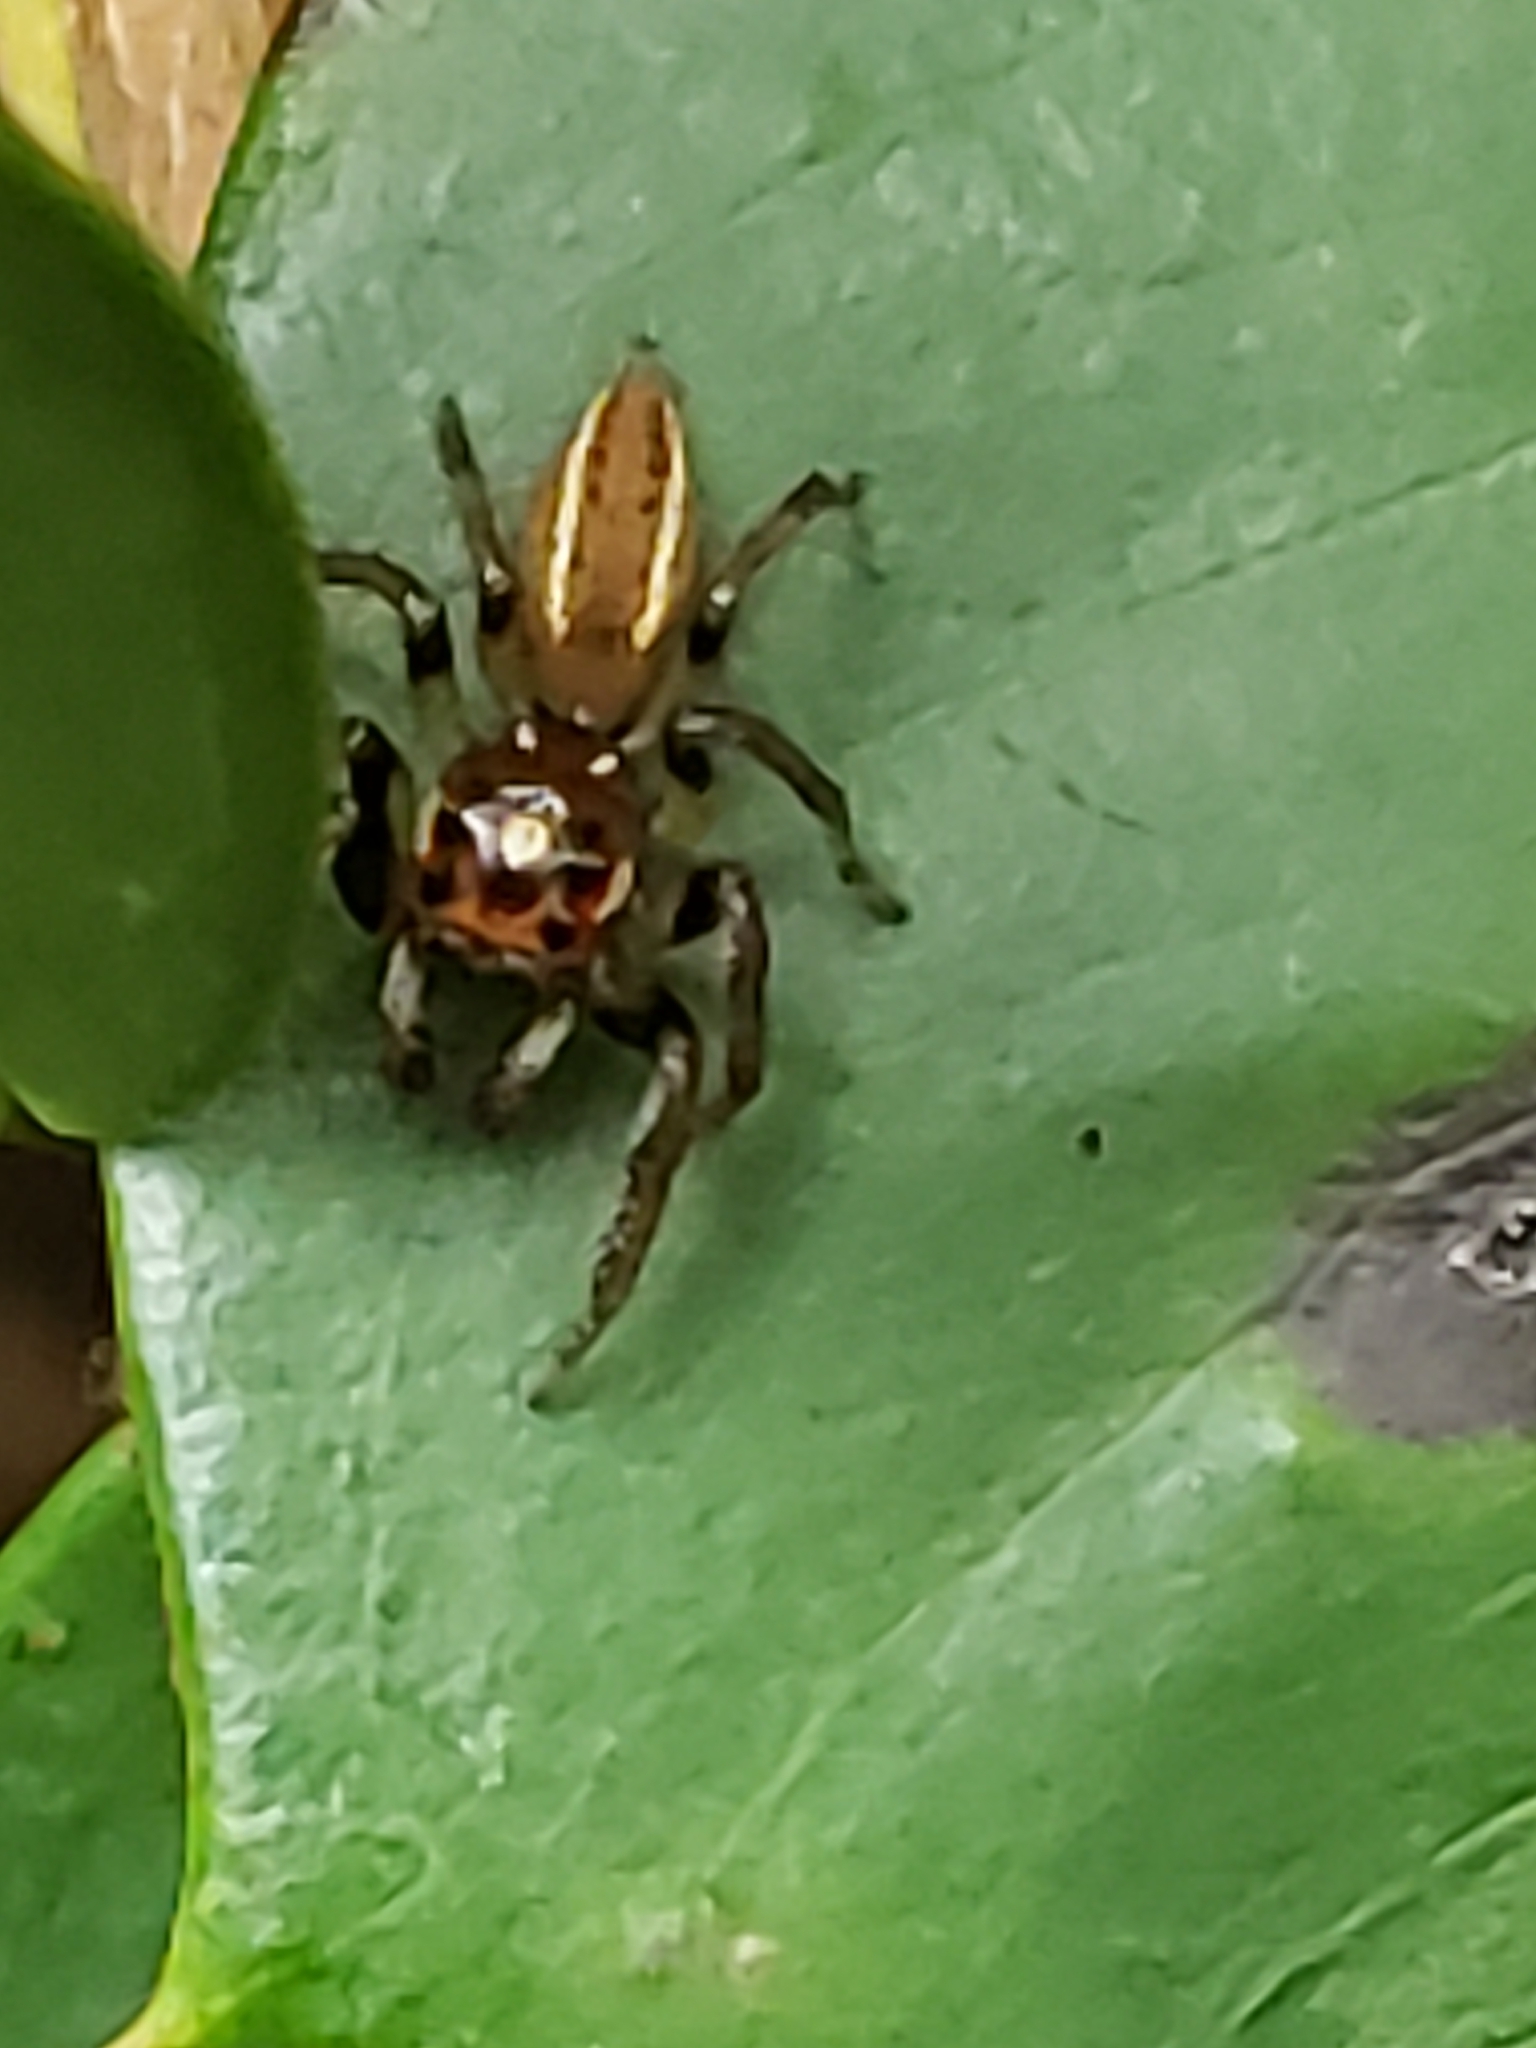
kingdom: Animalia
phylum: Arthropoda
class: Arachnida
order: Araneae
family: Salticidae
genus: Colonus
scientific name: Colonus sylvanus
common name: Jumping spiders
